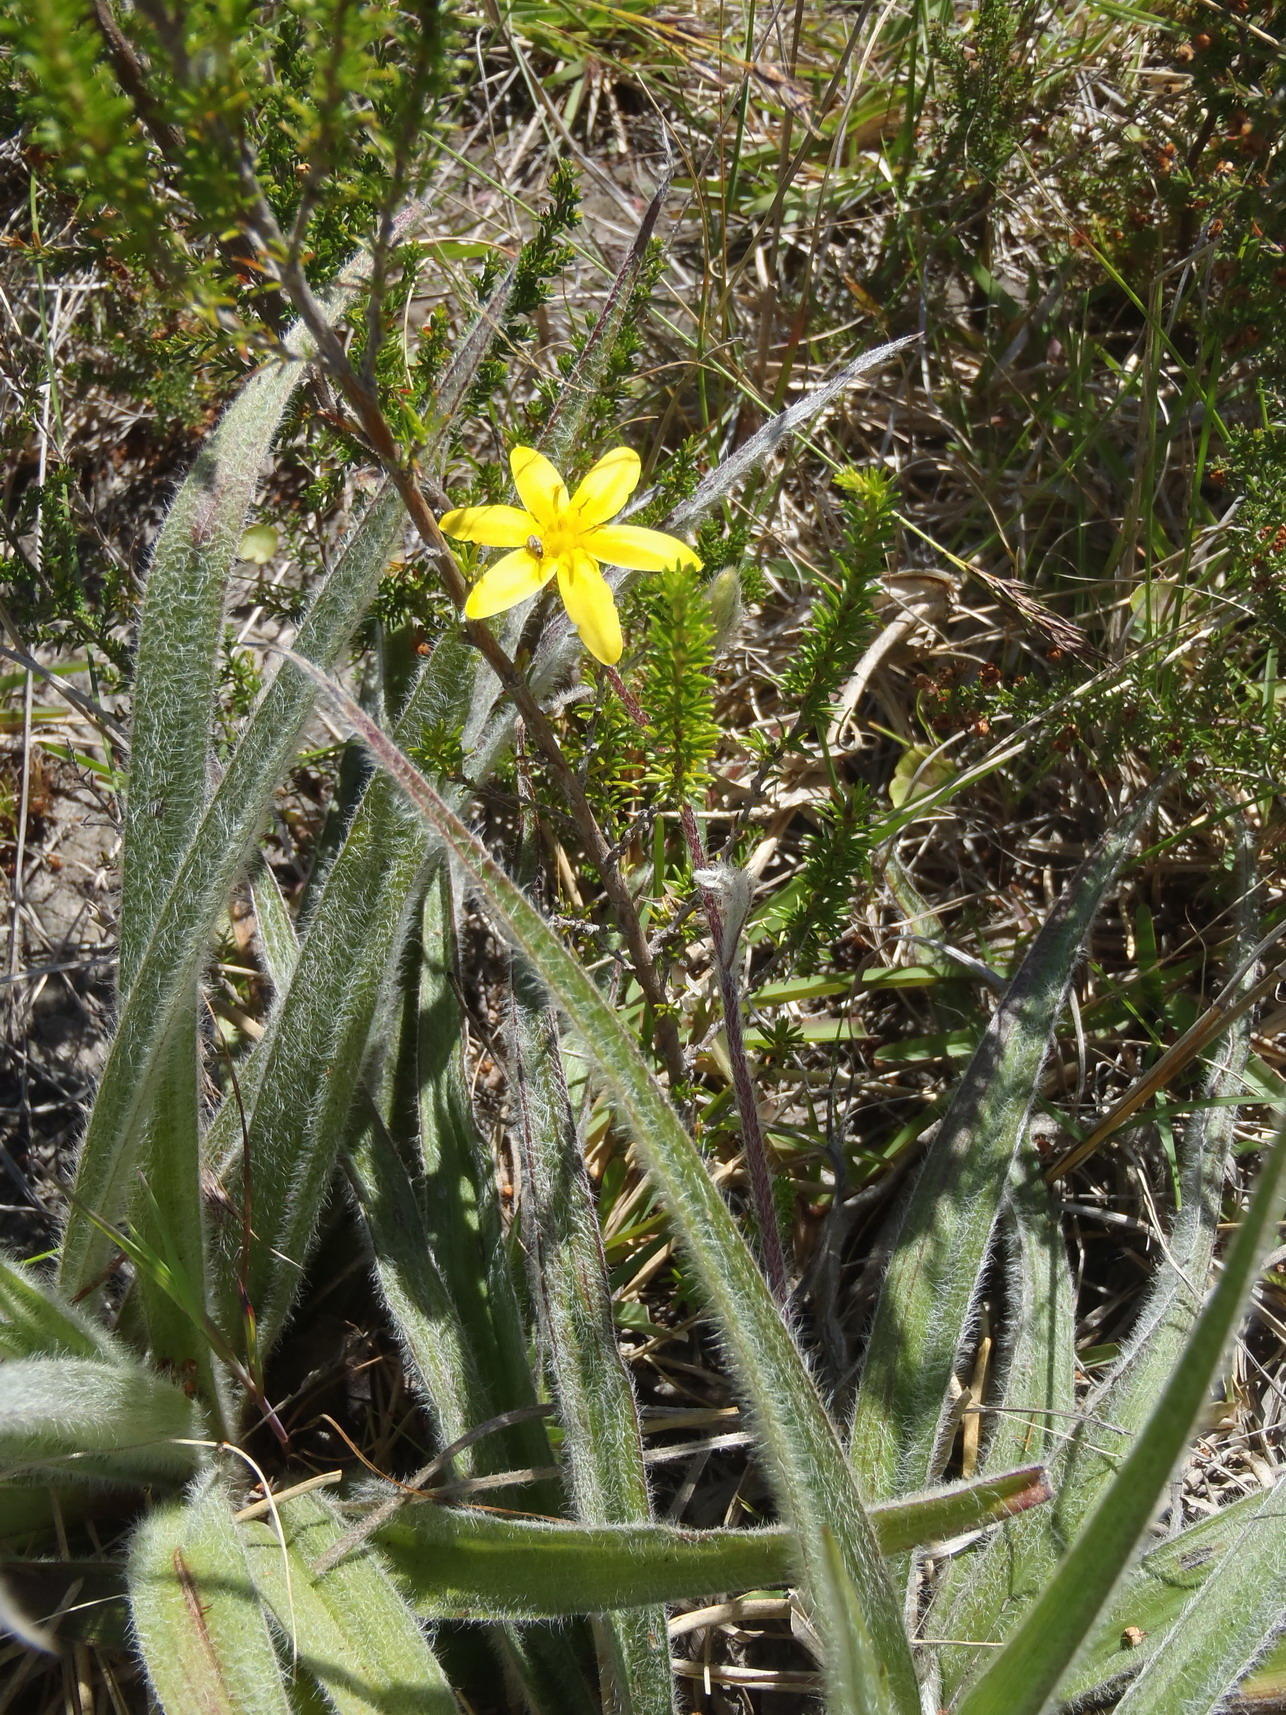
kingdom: Plantae
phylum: Tracheophyta
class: Liliopsida
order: Asparagales
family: Hypoxidaceae
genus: Hypoxis
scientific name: Hypoxis sobolifera
